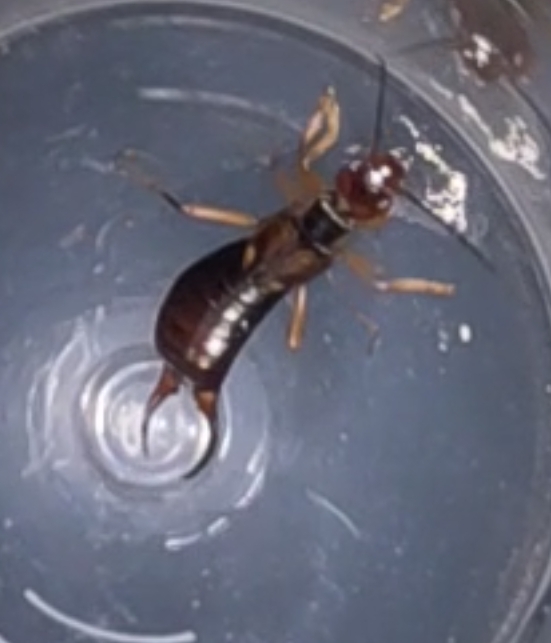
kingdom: Animalia
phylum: Arthropoda
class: Insecta
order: Dermaptera
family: Forficulidae
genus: Forficula
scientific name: Forficula auricularia
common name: European earwig
